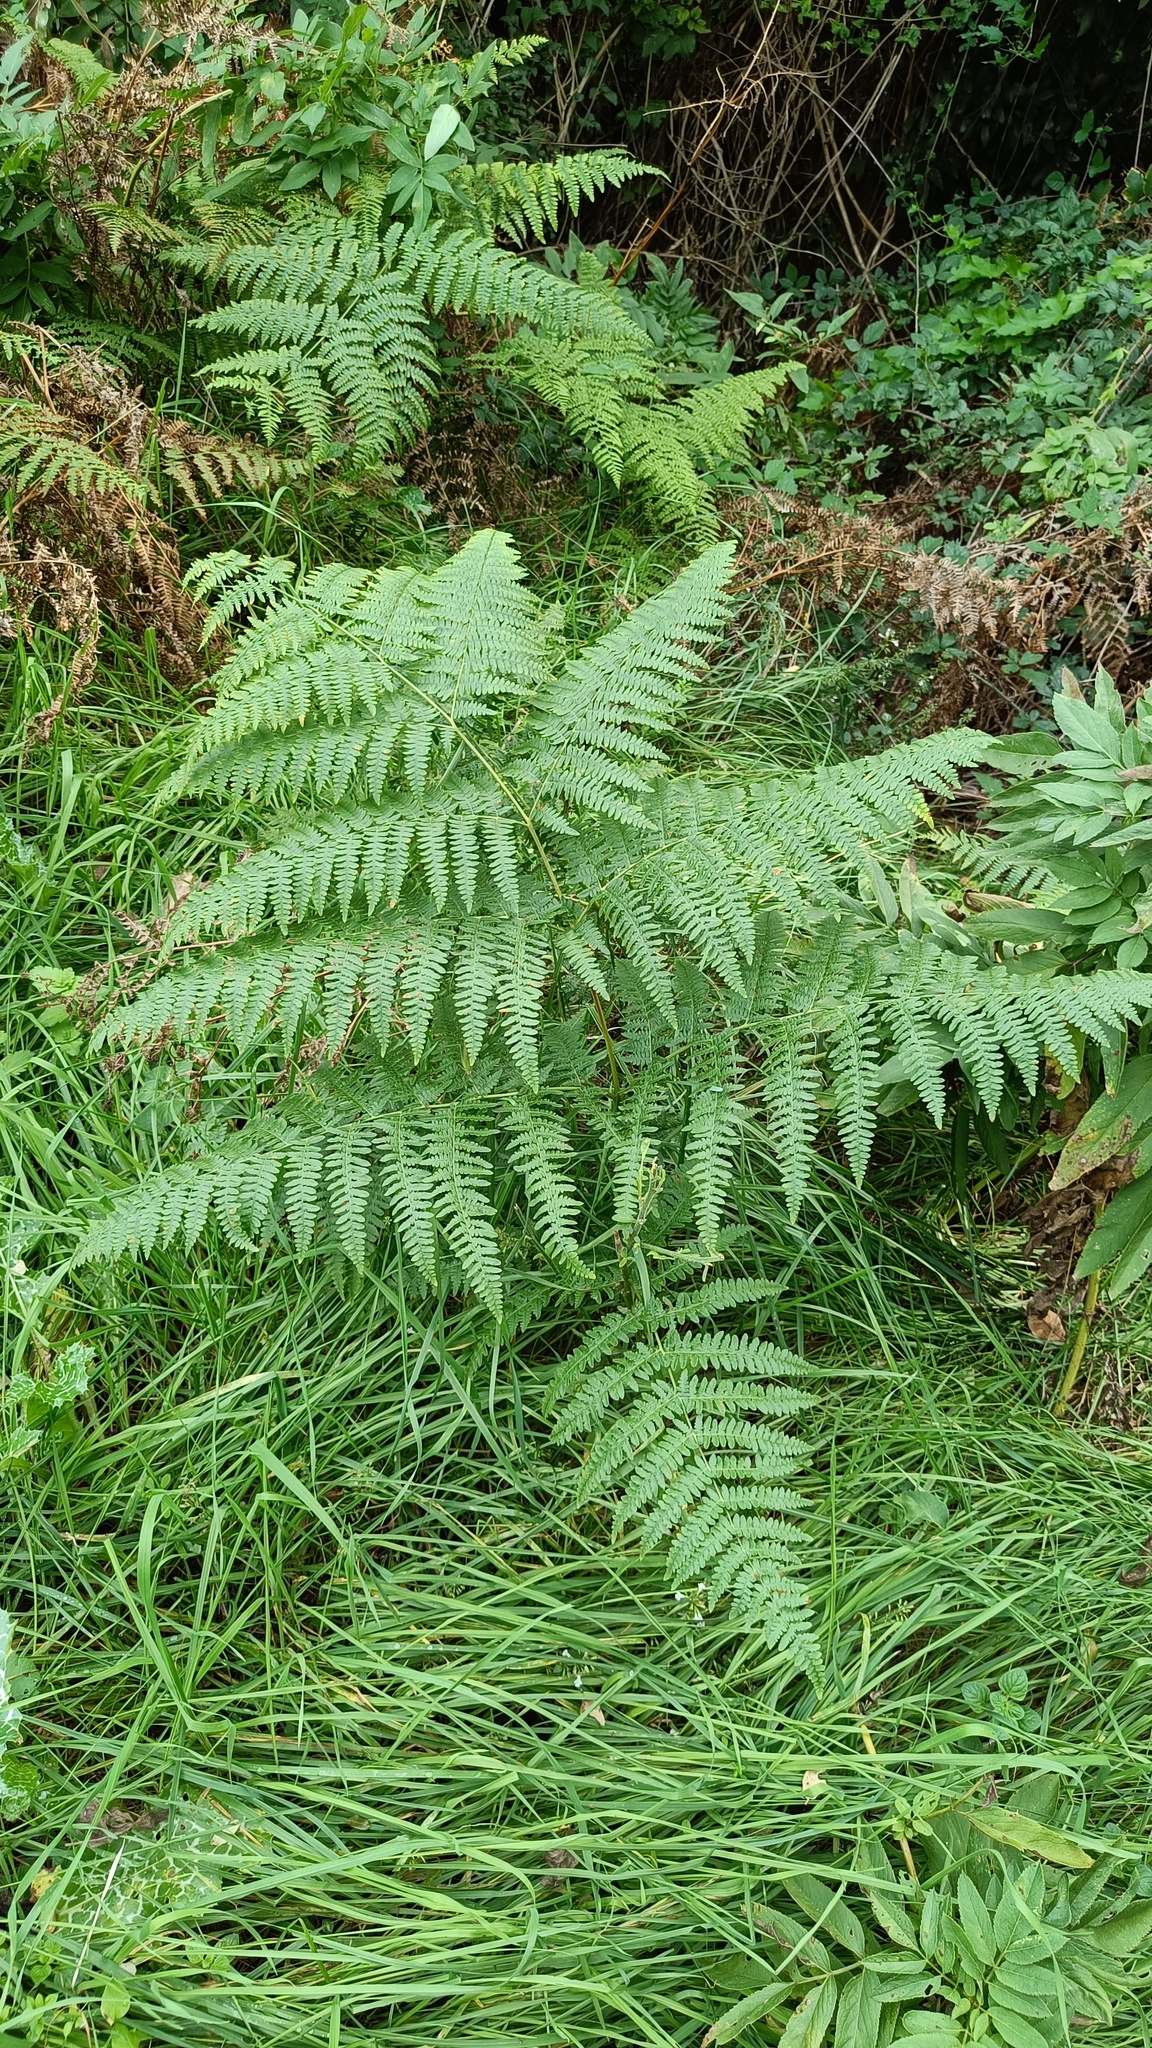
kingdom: Plantae
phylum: Tracheophyta
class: Polypodiopsida
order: Polypodiales
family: Dennstaedtiaceae
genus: Pteridium
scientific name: Pteridium aquilinum
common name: Bracken
